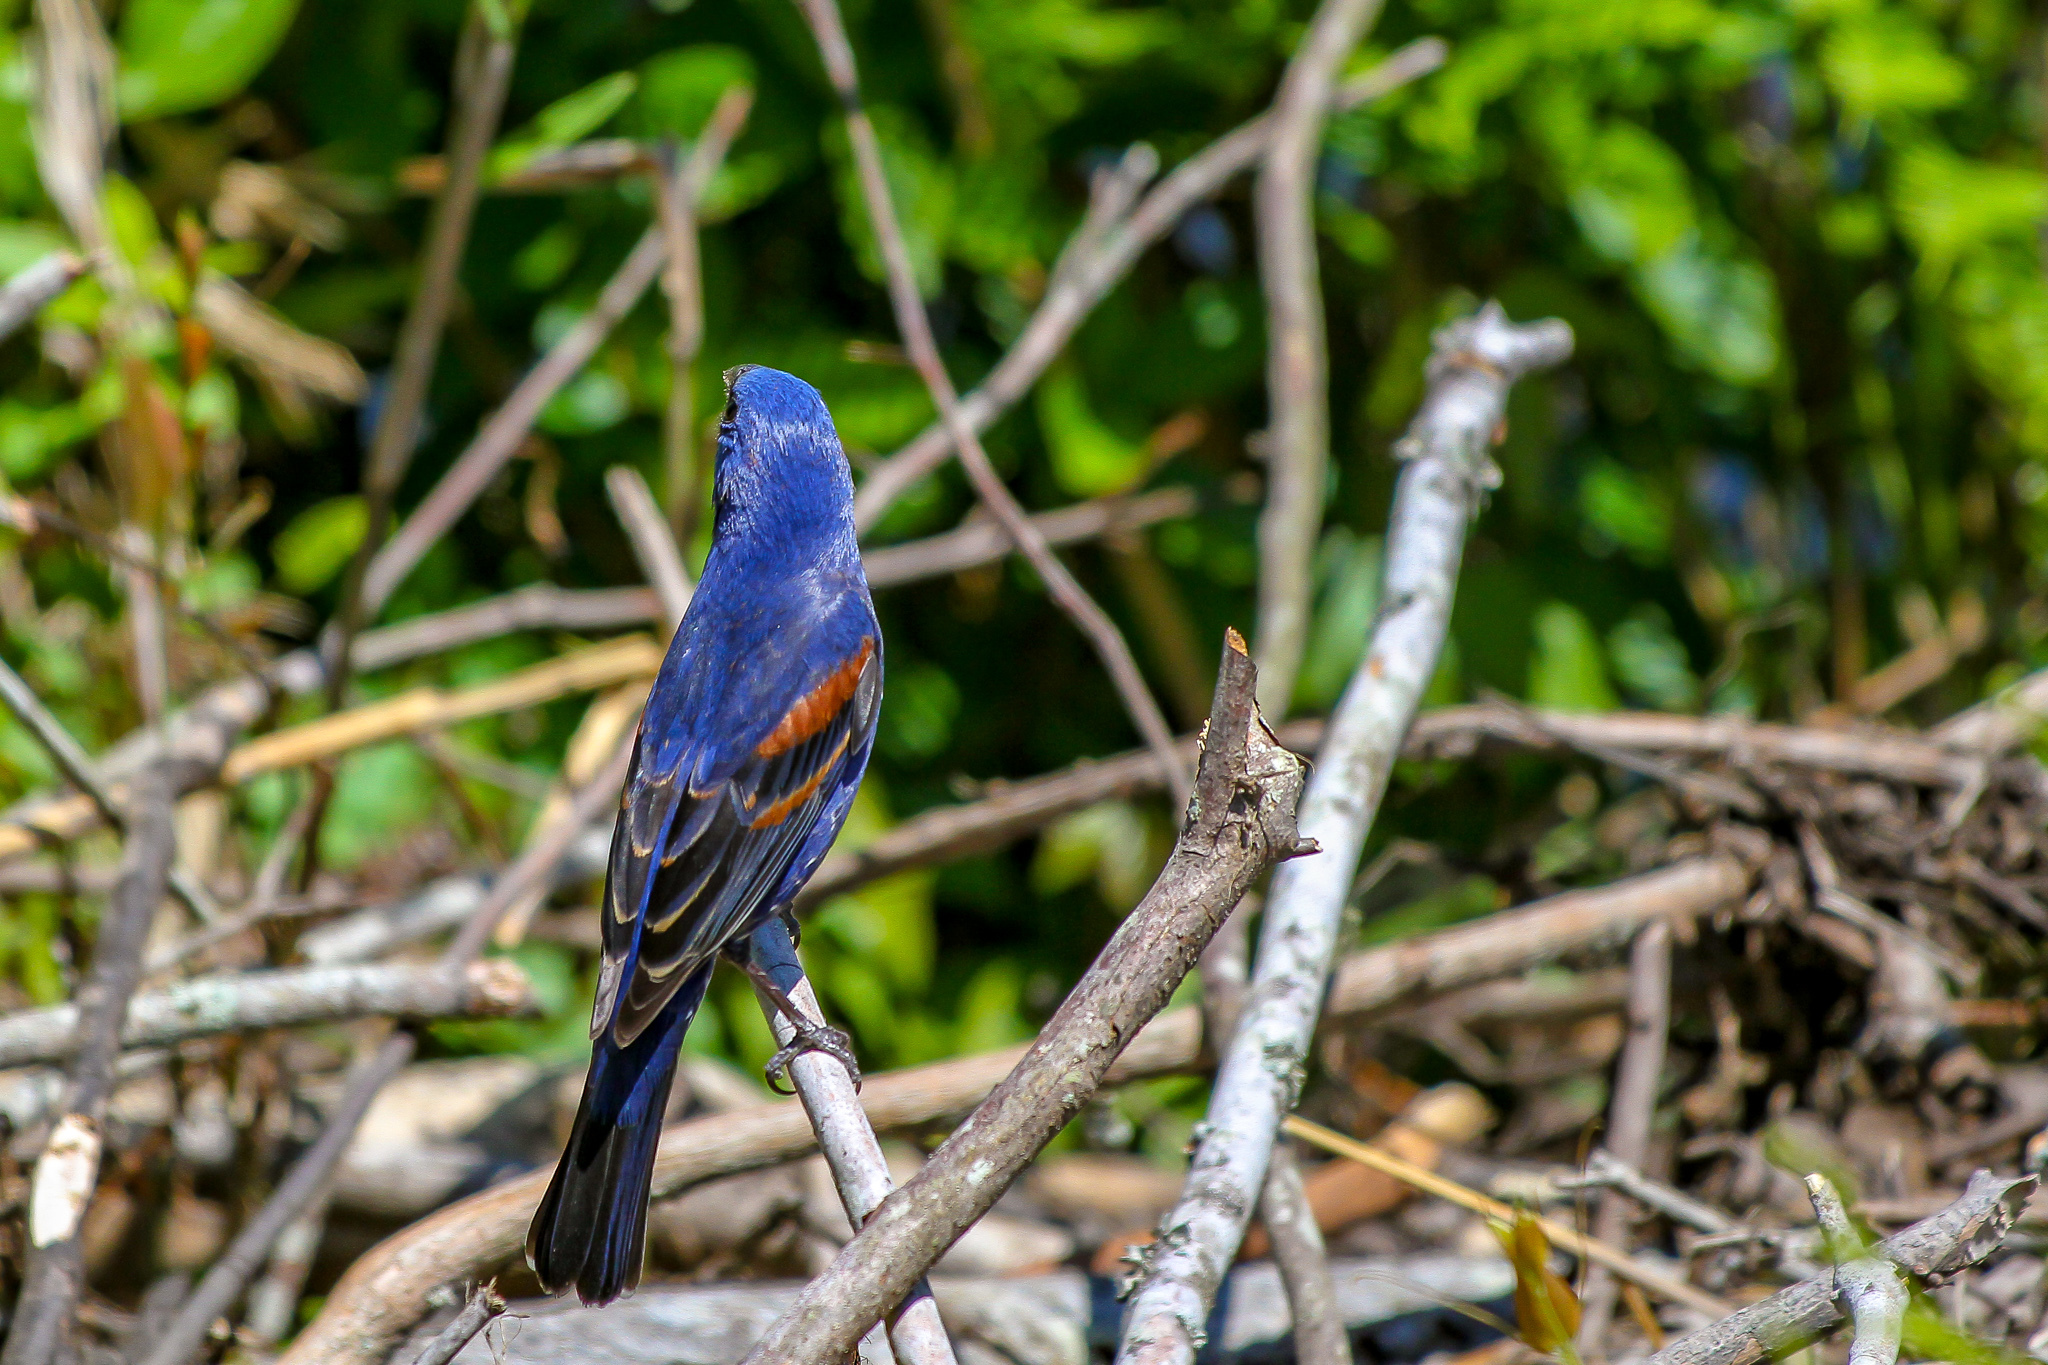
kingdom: Animalia
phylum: Chordata
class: Aves
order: Passeriformes
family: Cardinalidae
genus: Passerina
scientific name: Passerina caerulea
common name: Blue grosbeak
